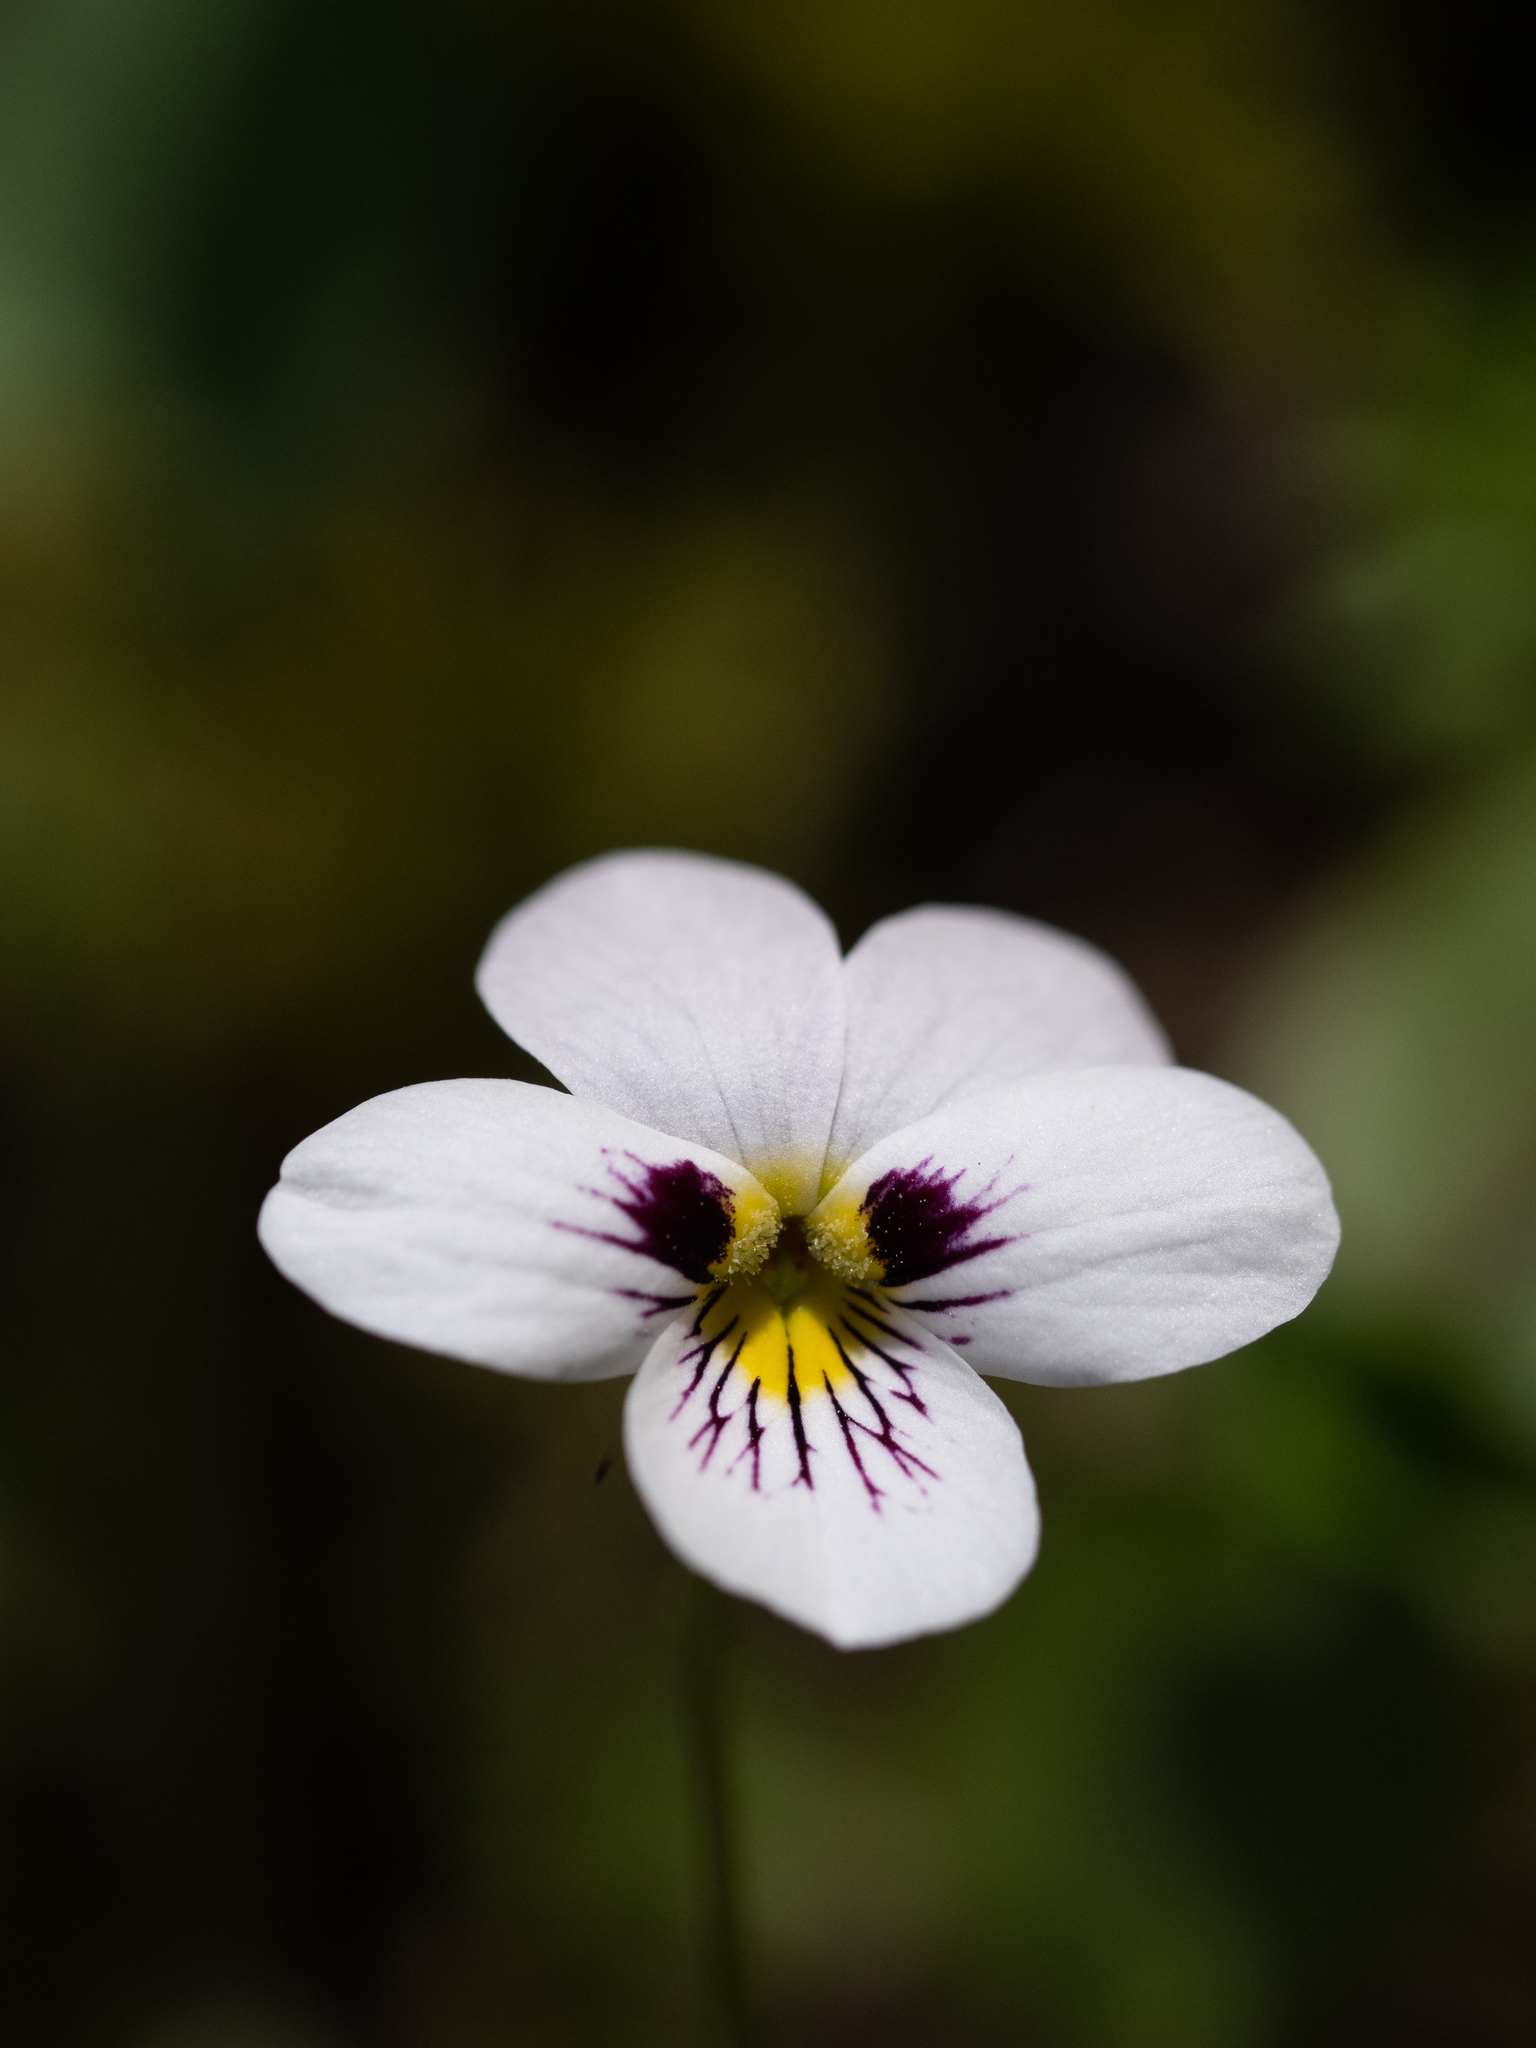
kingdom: Plantae
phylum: Tracheophyta
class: Magnoliopsida
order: Malpighiales
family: Violaceae
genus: Viola
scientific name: Viola ocellata
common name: Western heart's ease
